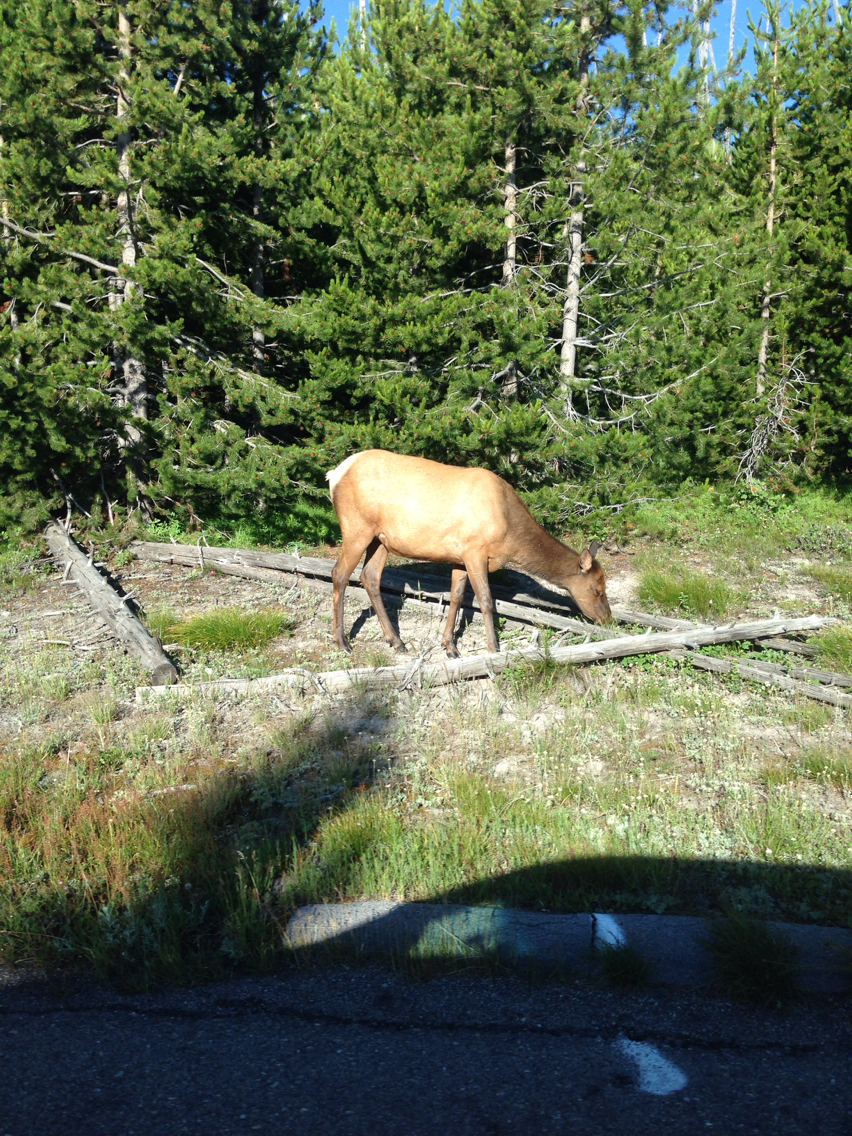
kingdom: Animalia
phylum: Chordata
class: Mammalia
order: Artiodactyla
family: Cervidae
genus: Cervus
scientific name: Cervus elaphus
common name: Red deer
